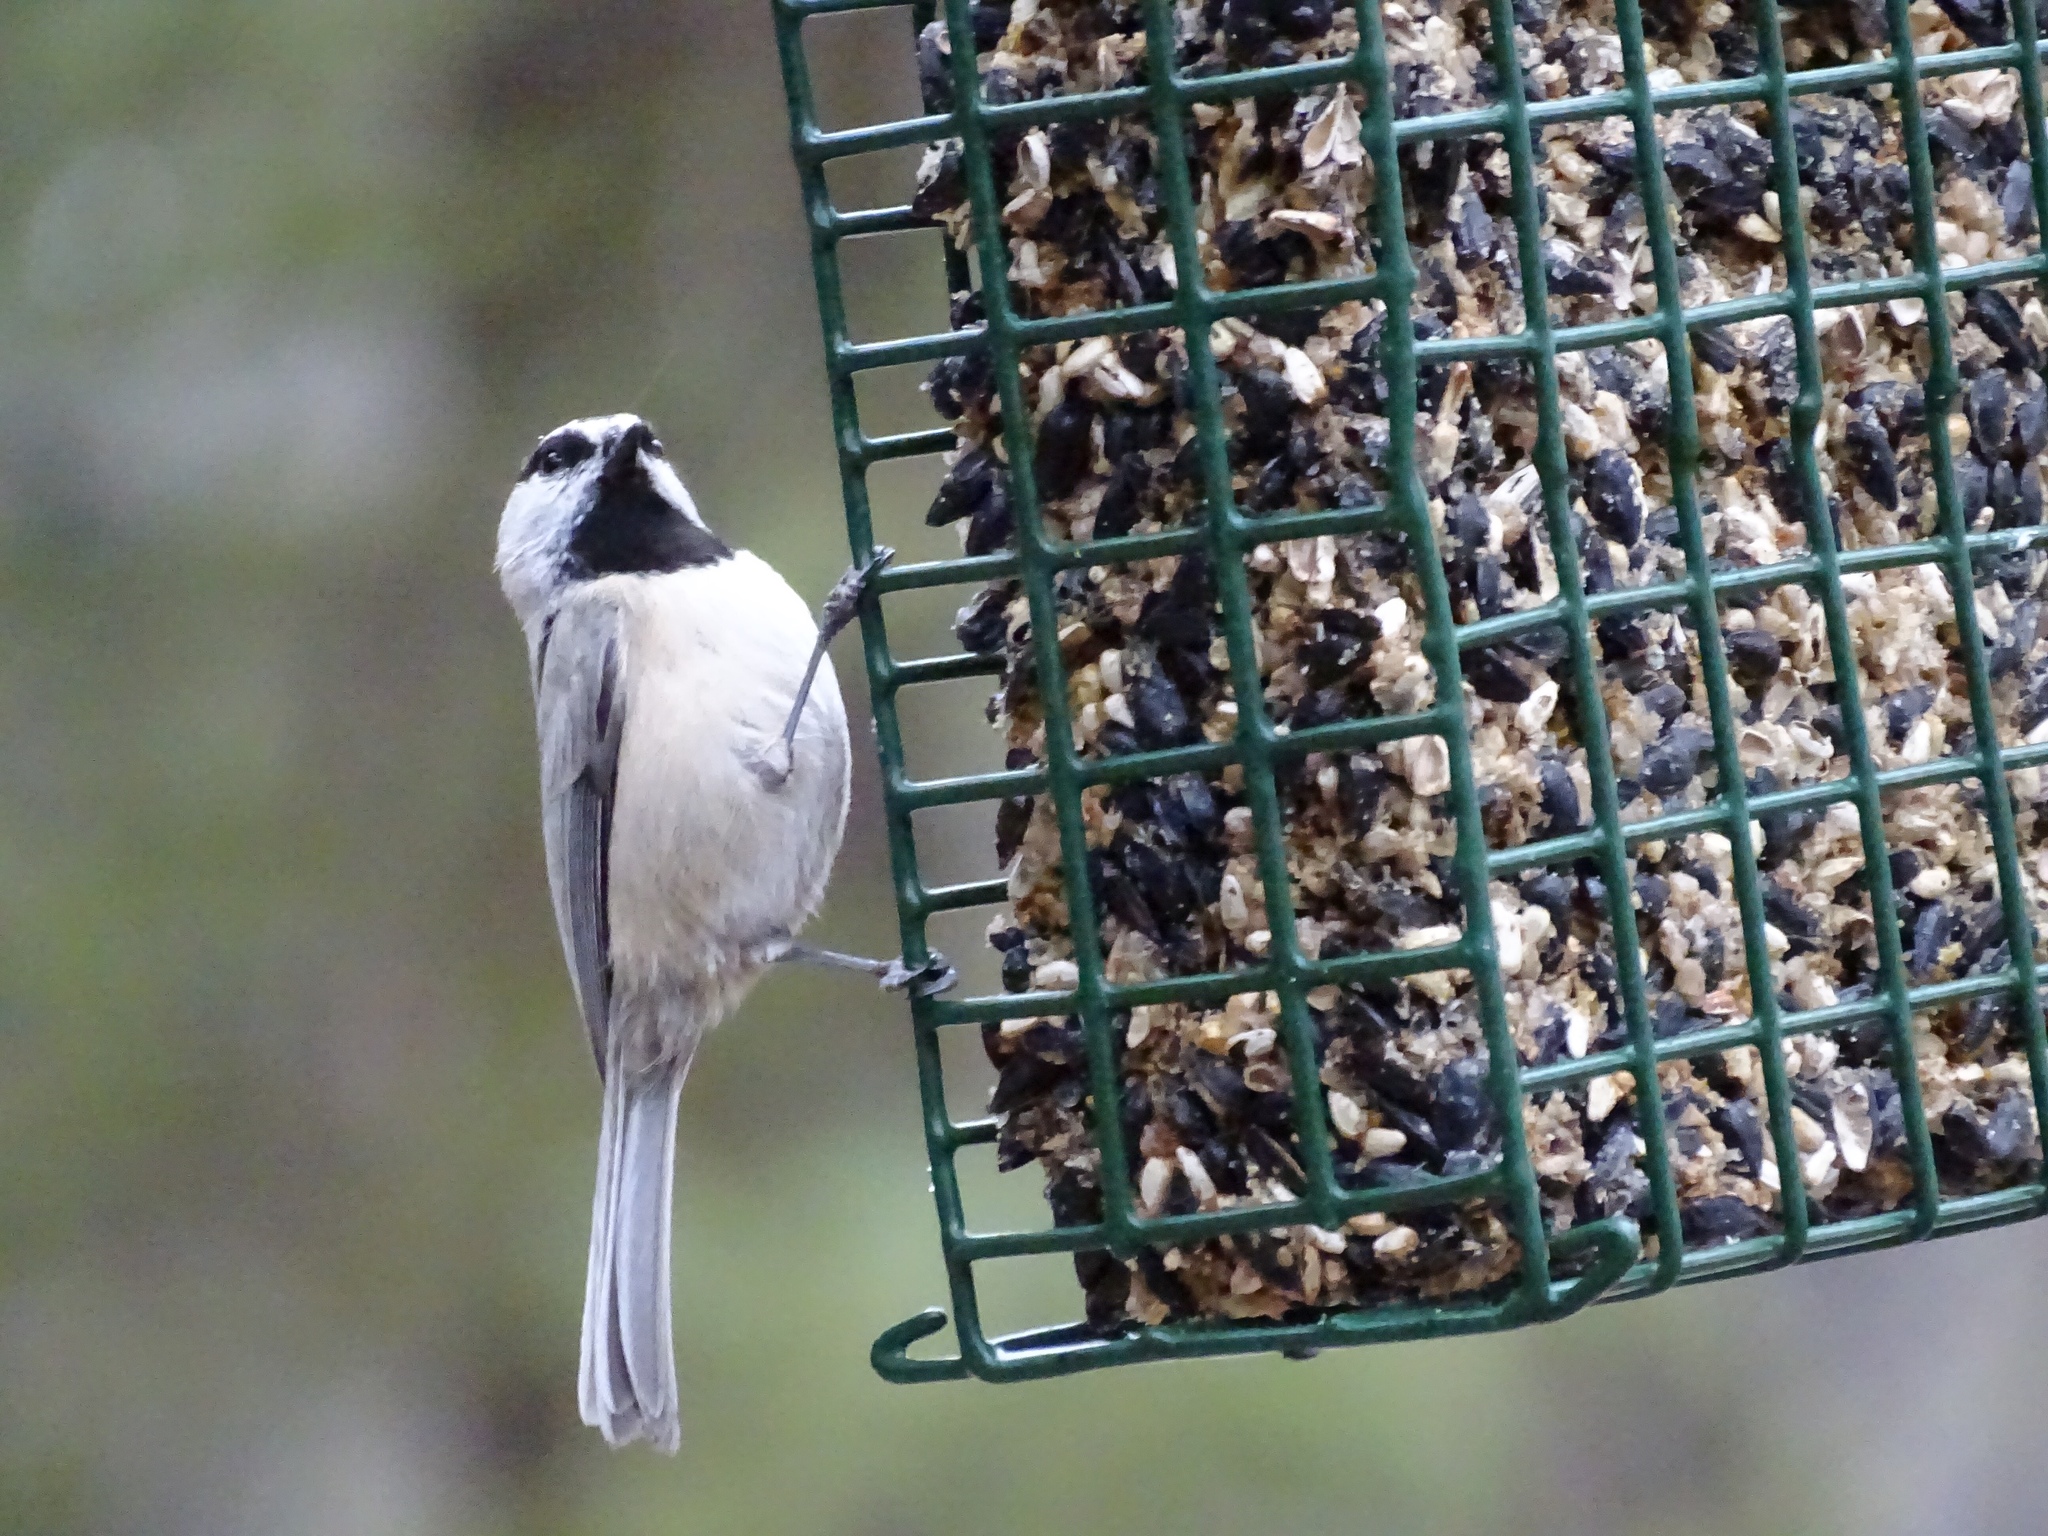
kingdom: Animalia
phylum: Chordata
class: Aves
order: Passeriformes
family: Paridae
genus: Poecile
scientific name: Poecile gambeli
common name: Mountain chickadee
